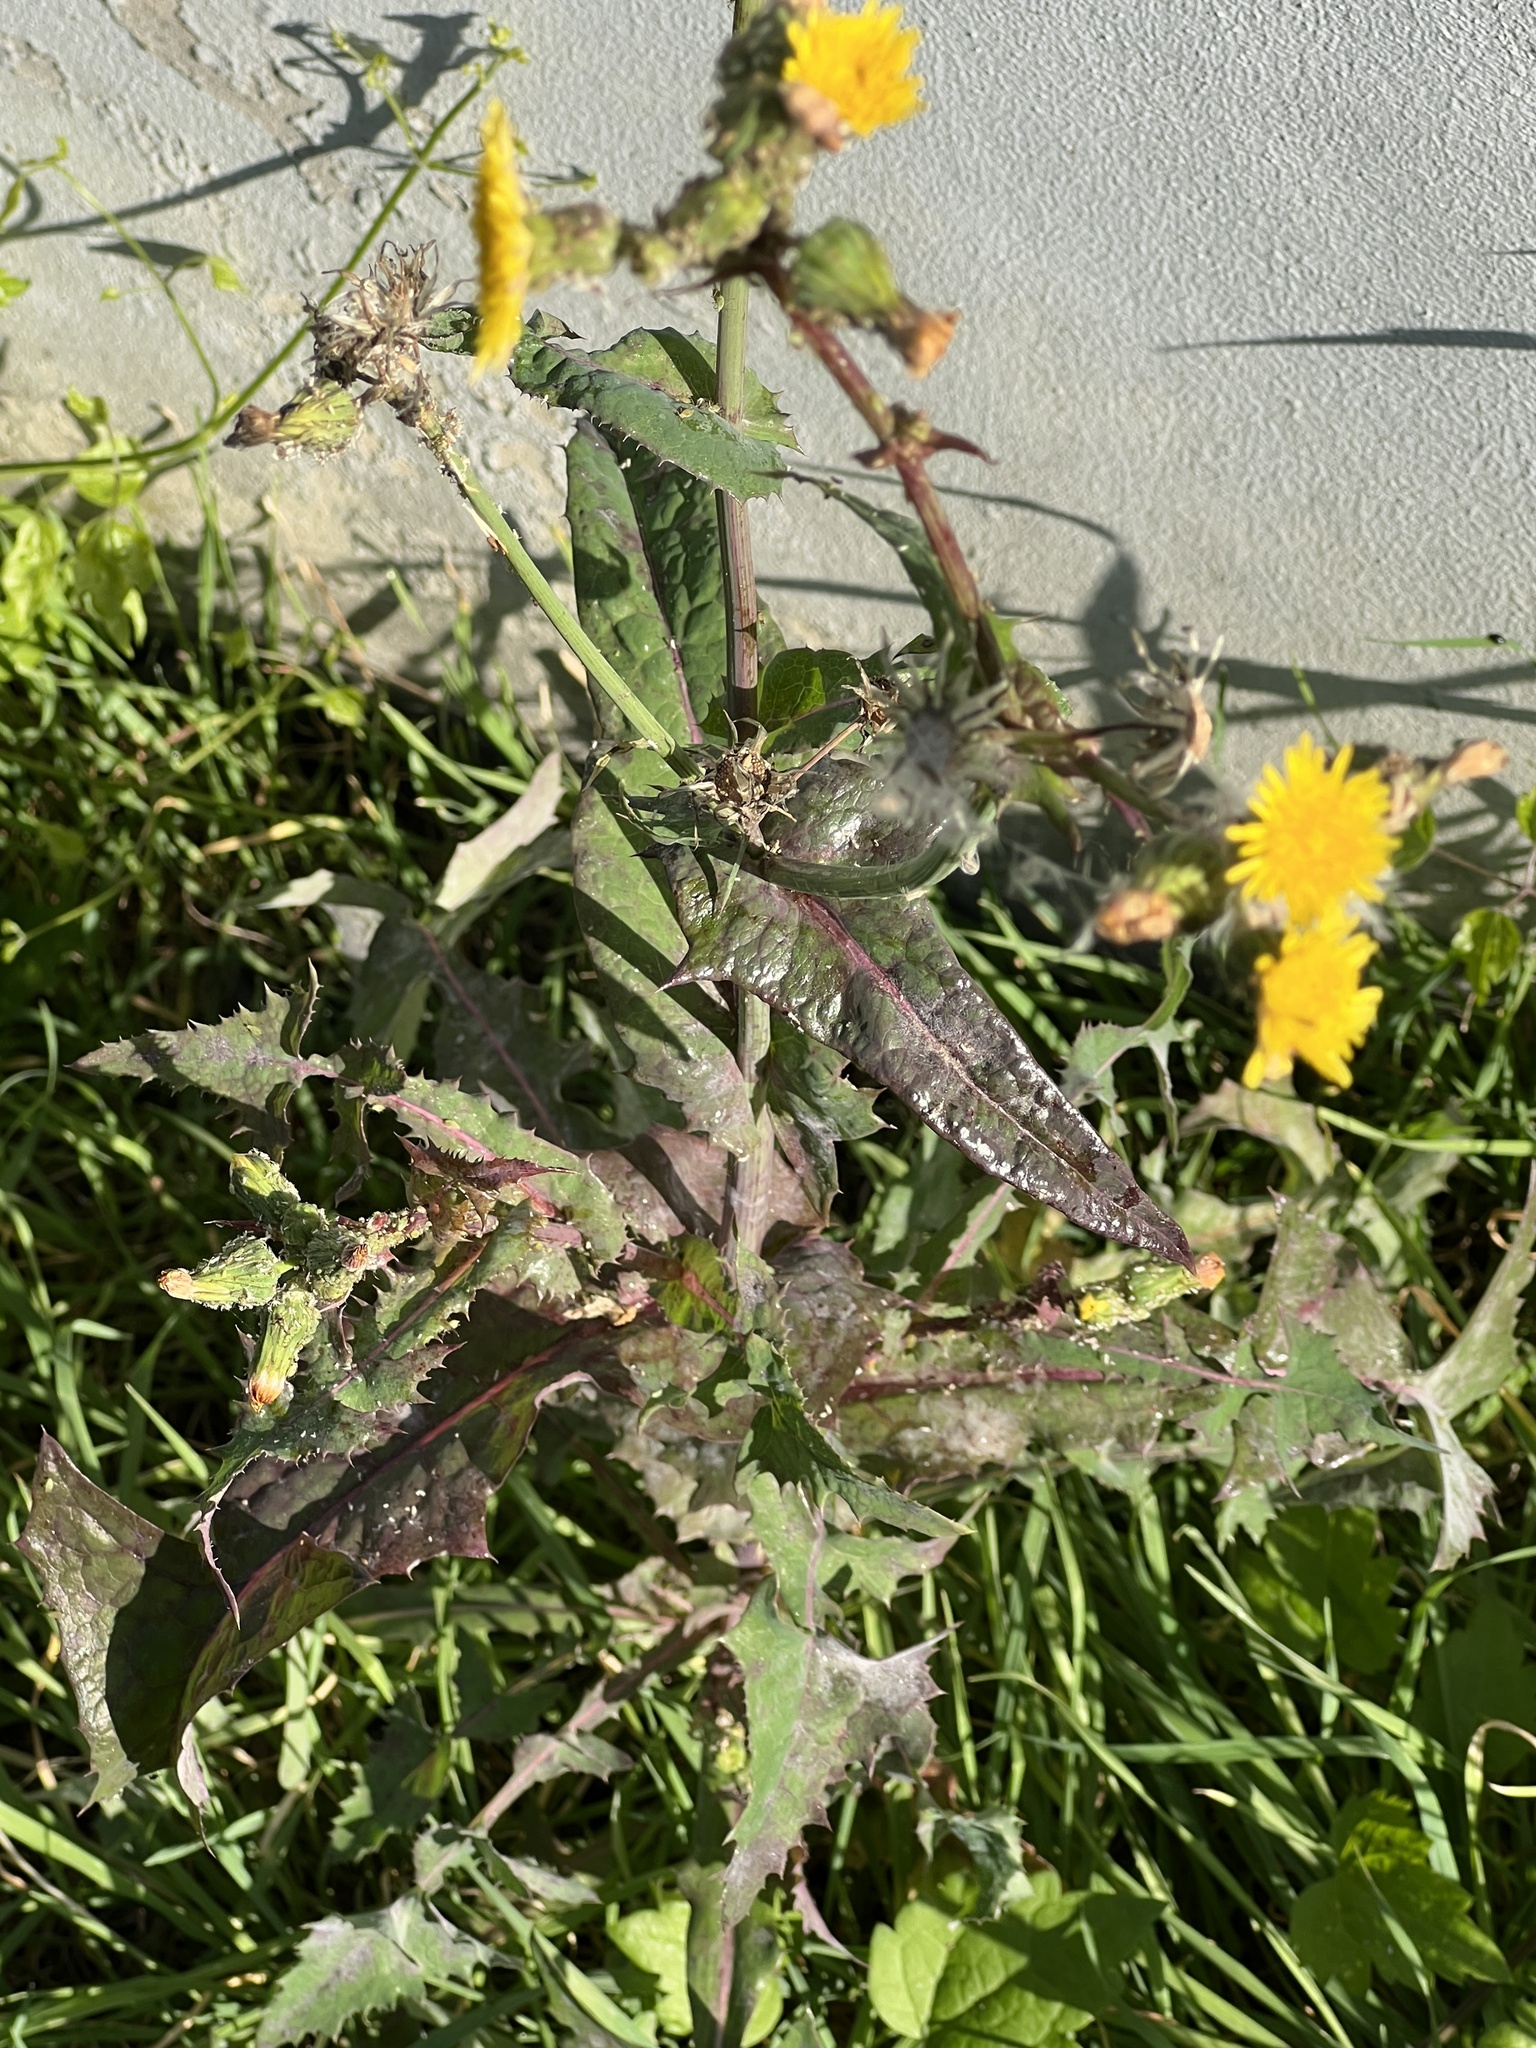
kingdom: Plantae
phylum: Tracheophyta
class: Magnoliopsida
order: Asterales
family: Asteraceae
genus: Sonchus
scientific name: Sonchus oleraceus
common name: Common sowthistle
